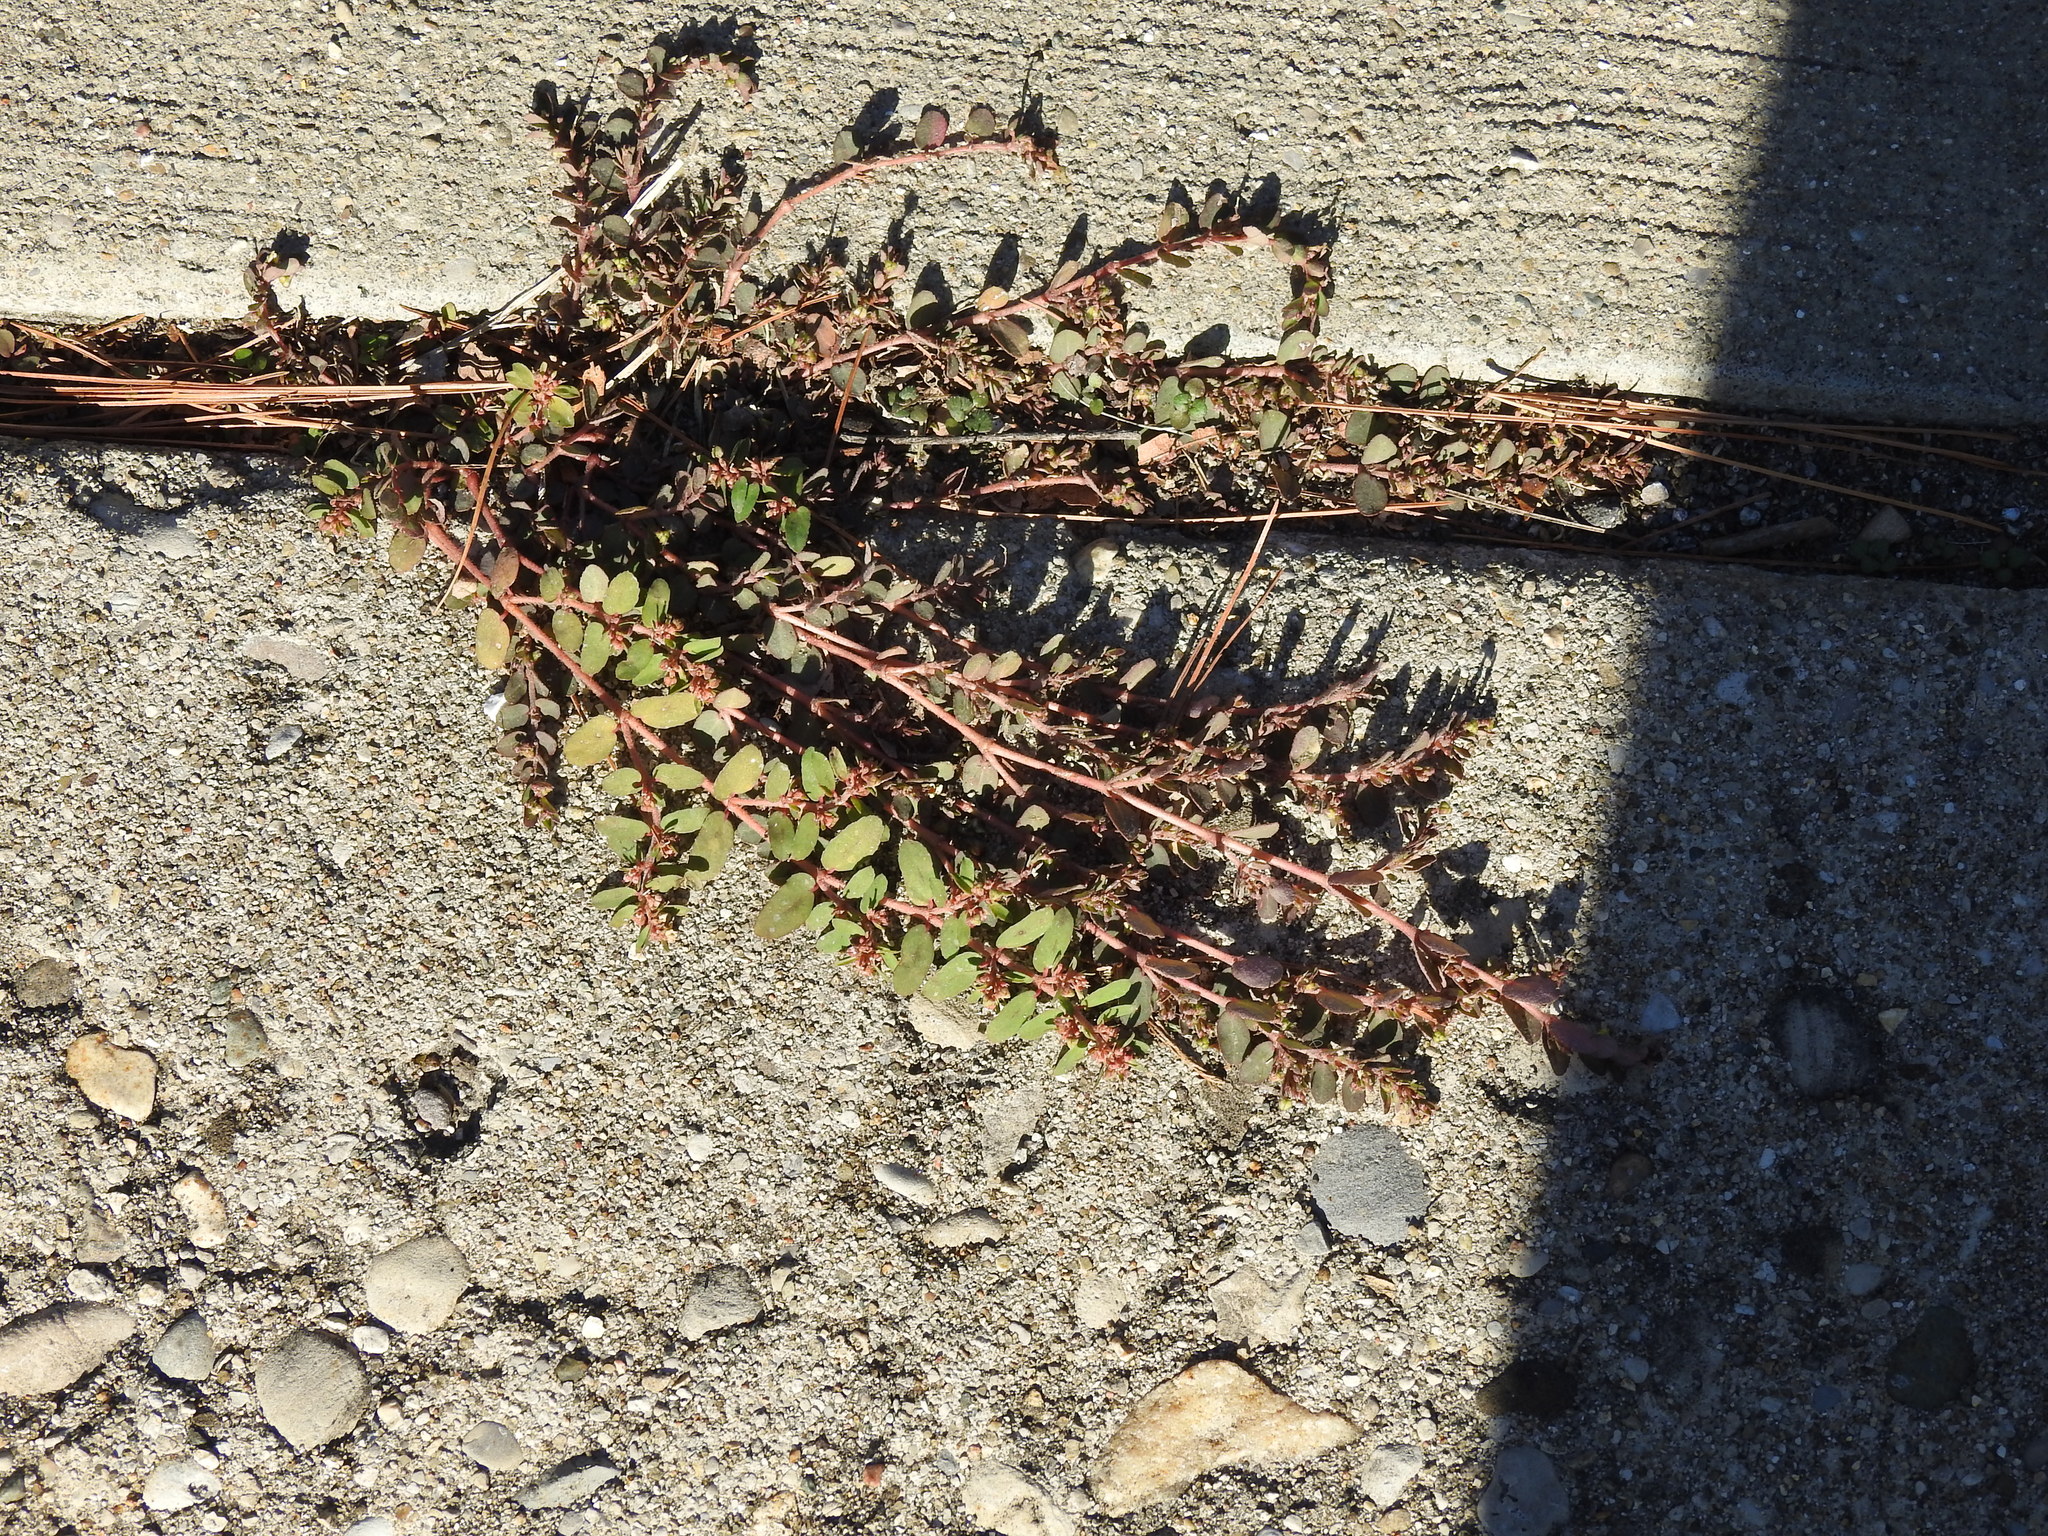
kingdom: Plantae
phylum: Tracheophyta
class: Magnoliopsida
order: Malpighiales
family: Euphorbiaceae
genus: Euphorbia
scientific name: Euphorbia maculata
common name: Spotted spurge
